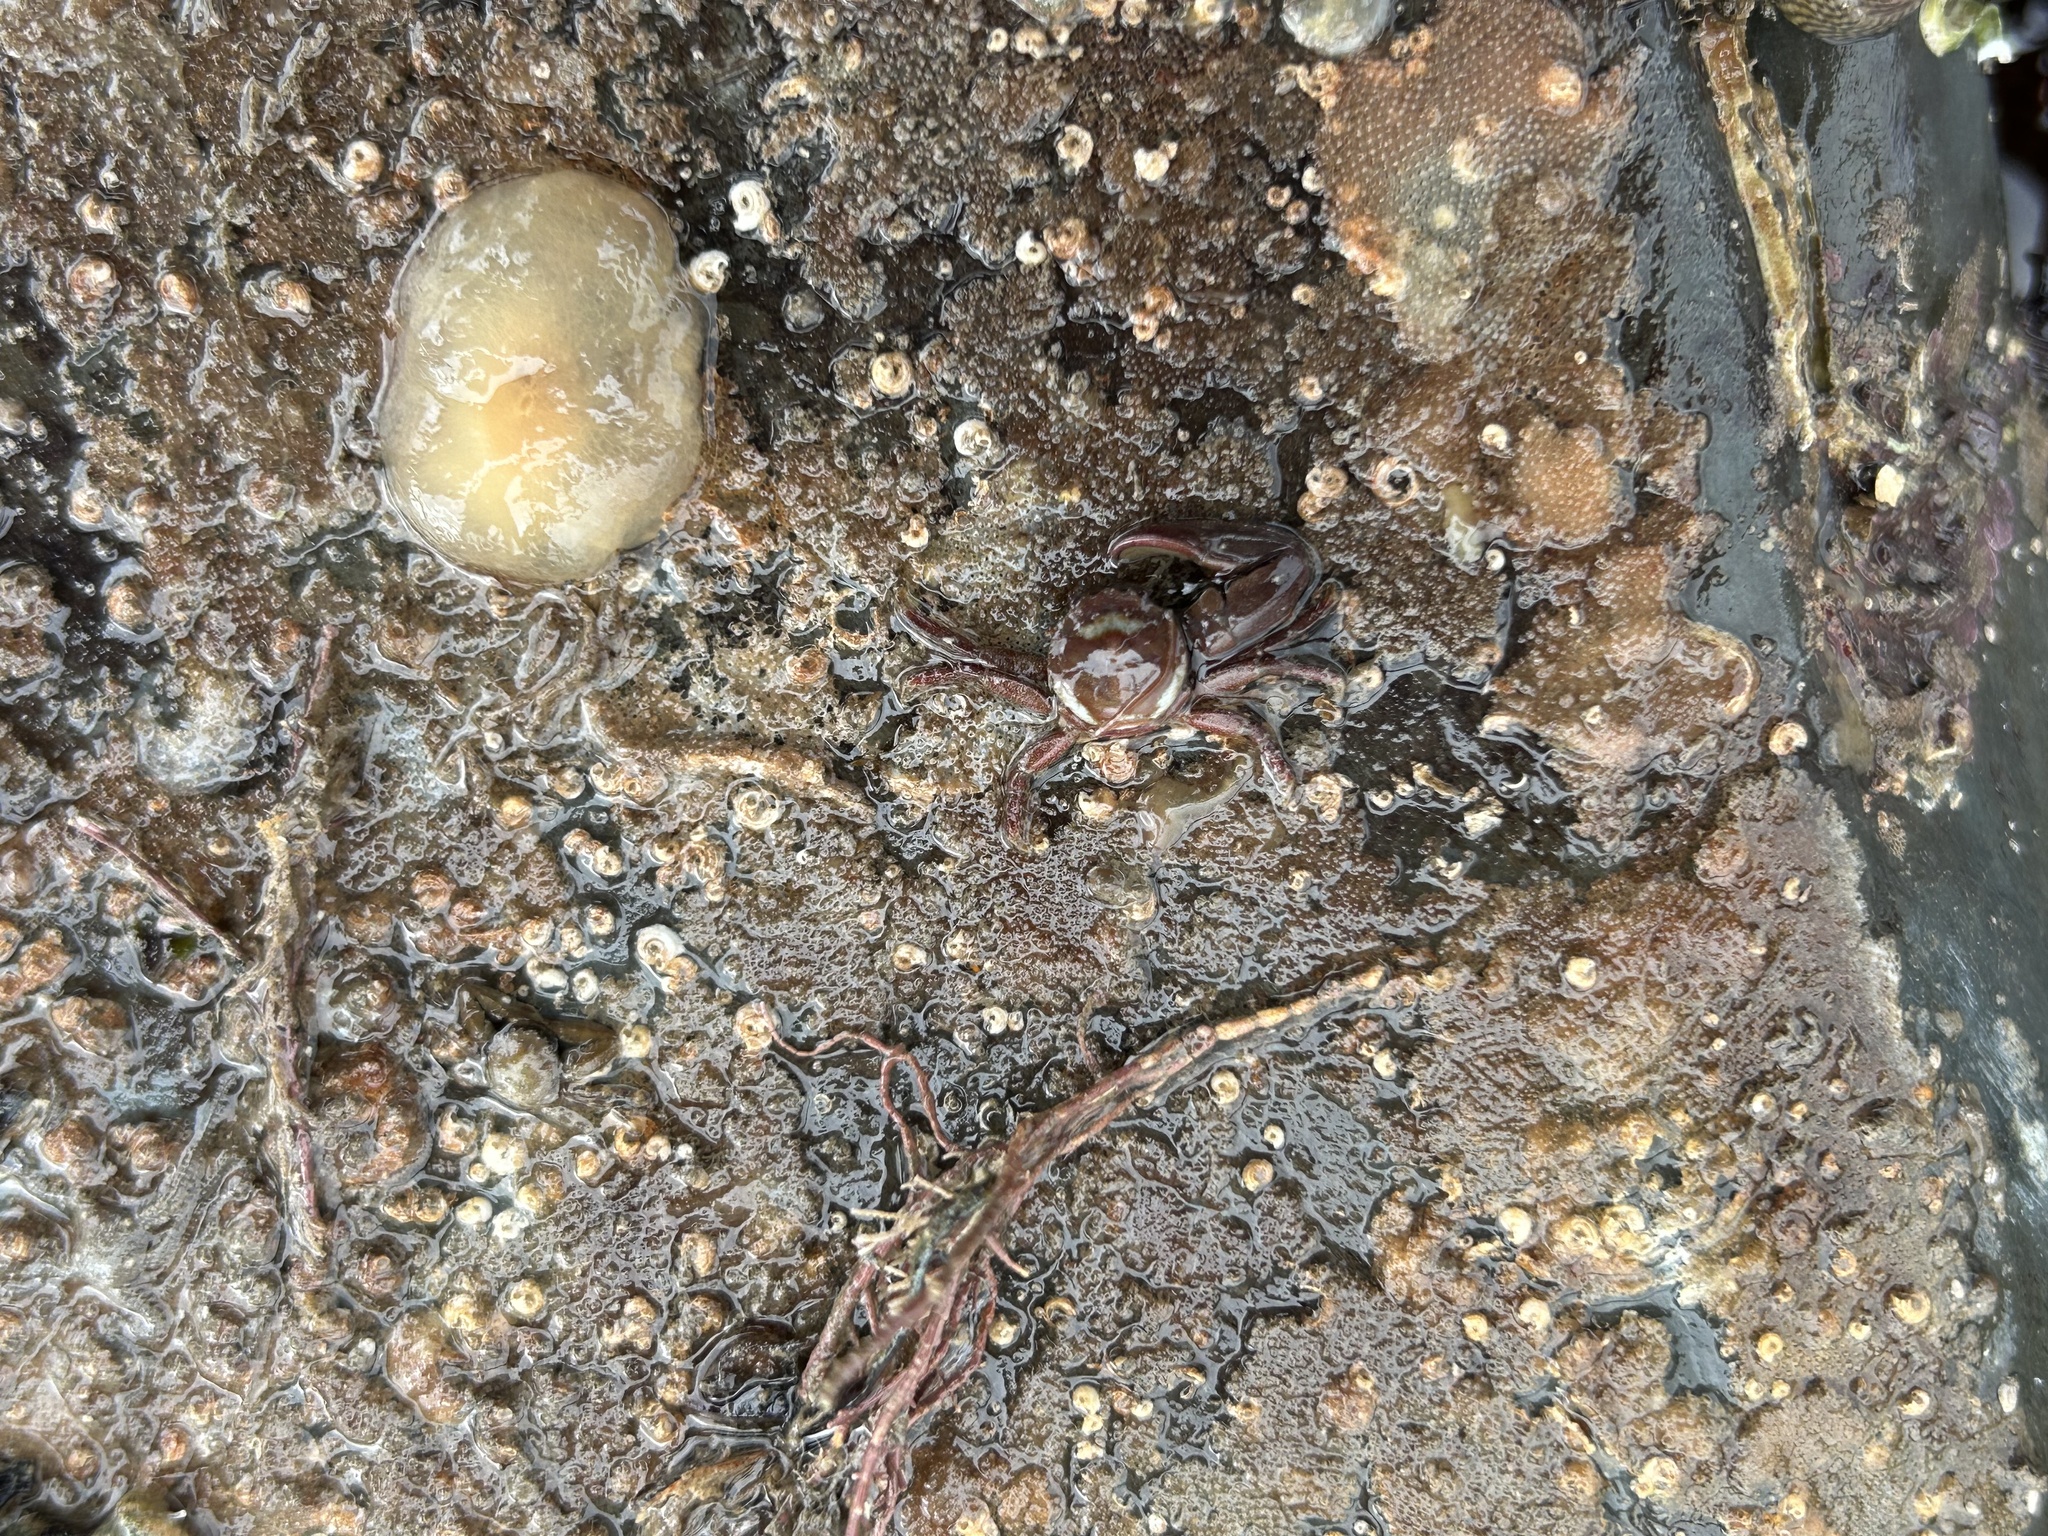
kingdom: Animalia
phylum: Arthropoda
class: Malacostraca
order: Decapoda
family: Porcellanidae
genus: Pisidia
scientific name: Pisidia longicornis
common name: Long clawed porcelain crab
